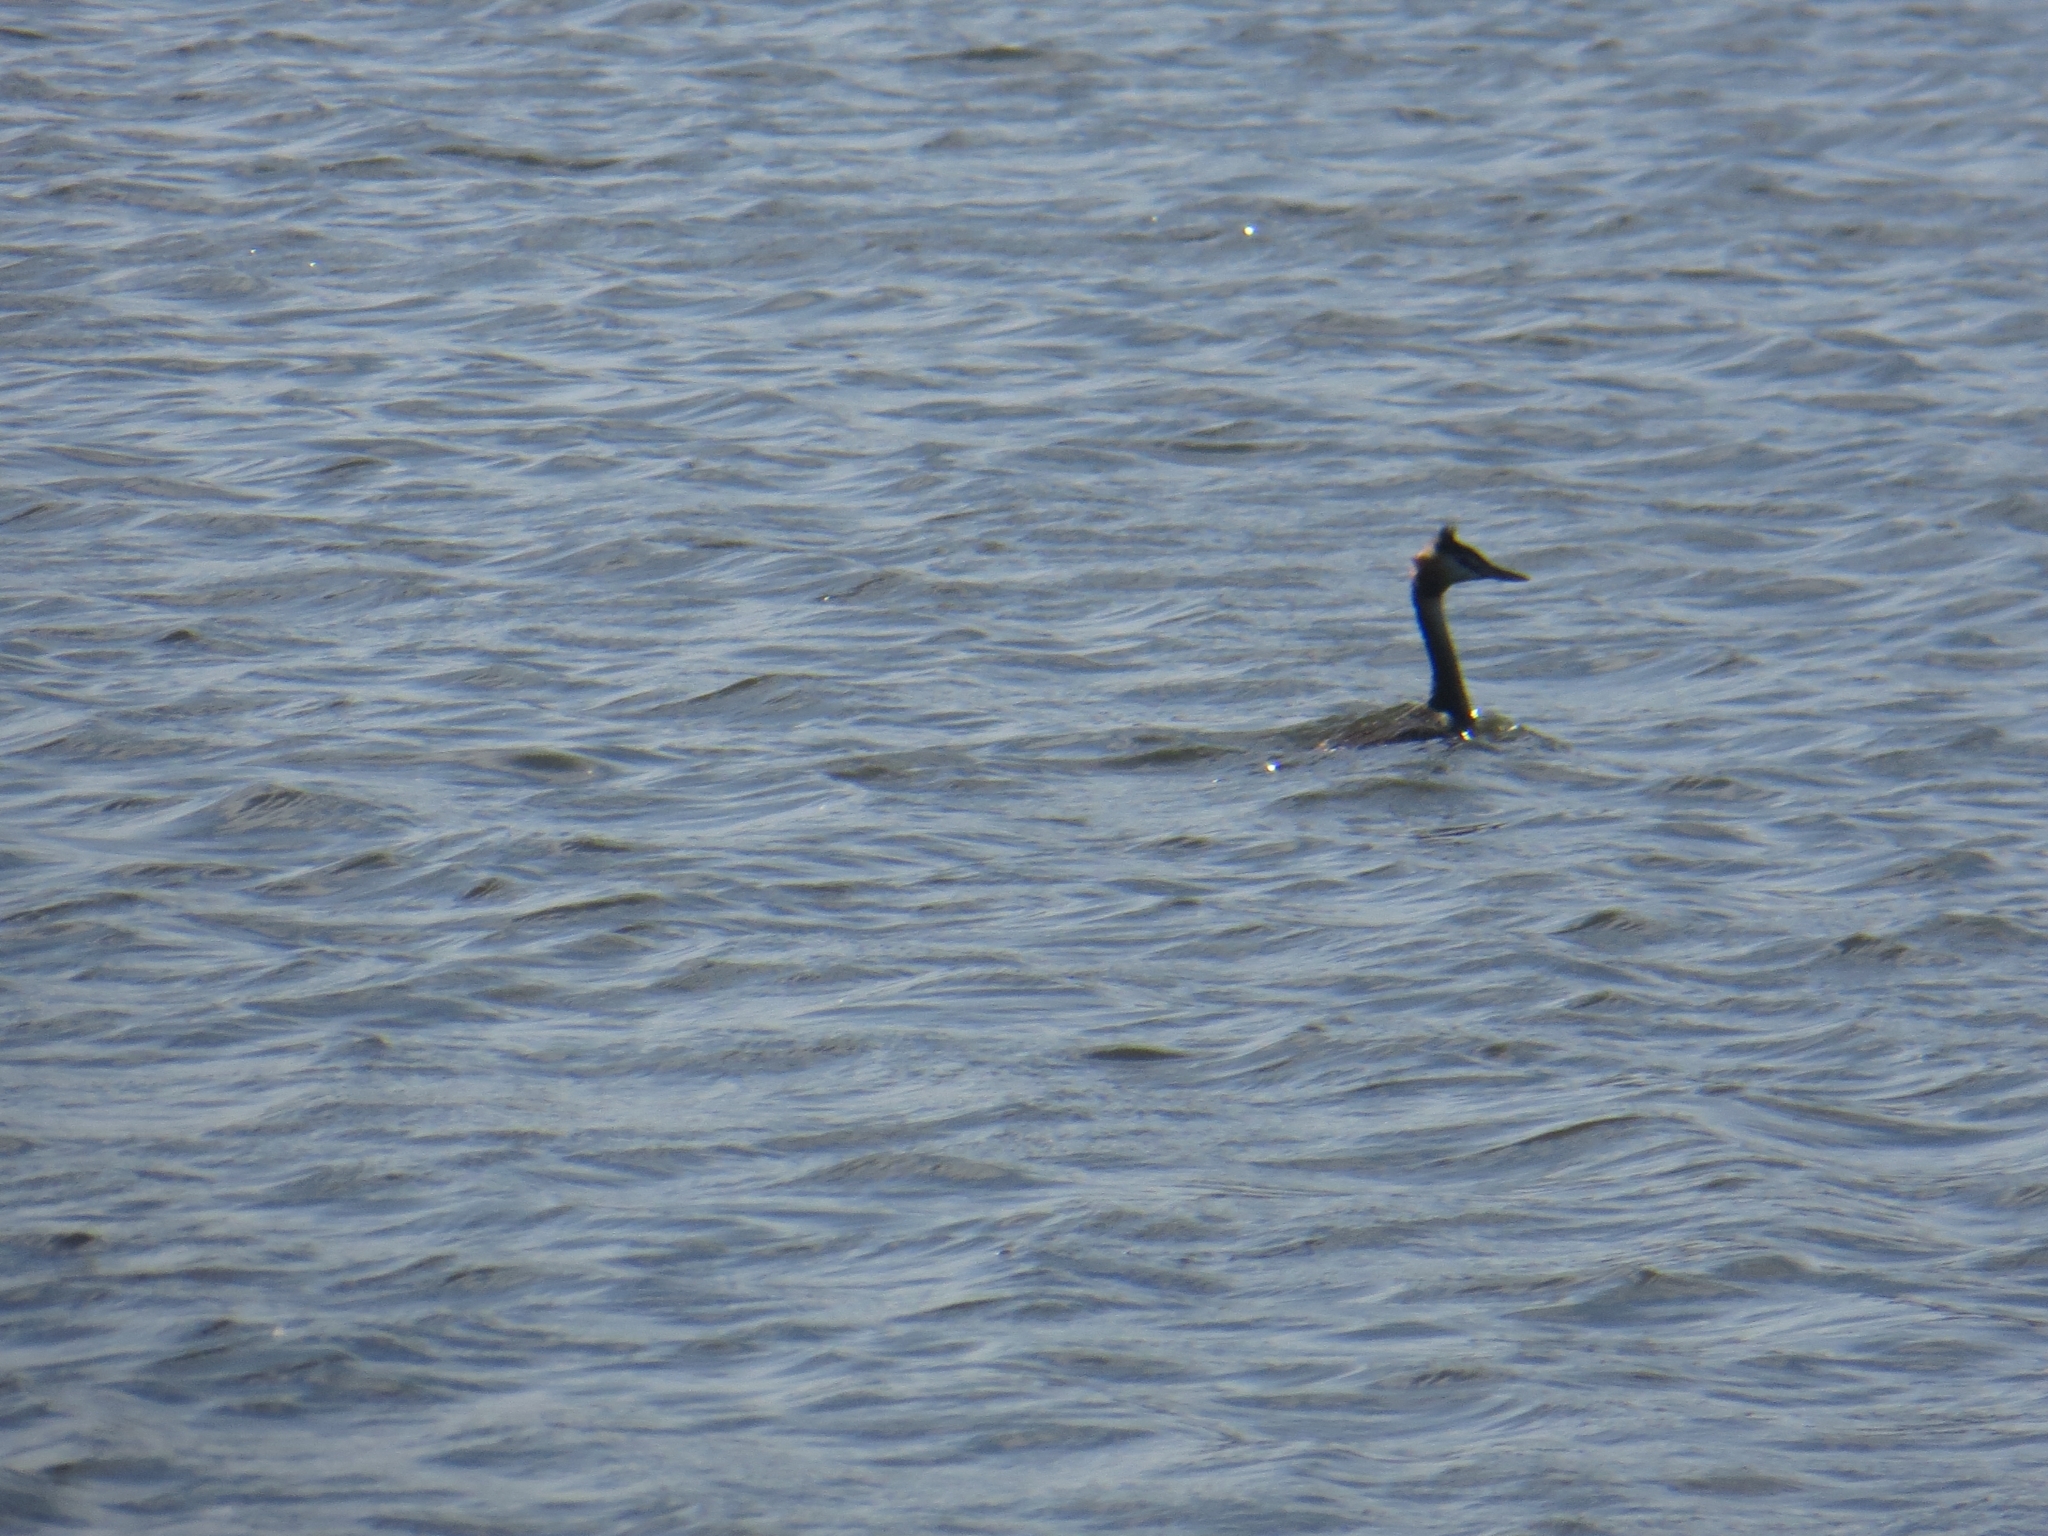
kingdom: Animalia
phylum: Chordata
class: Aves
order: Podicipediformes
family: Podicipedidae
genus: Podiceps
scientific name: Podiceps cristatus
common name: Great crested grebe
